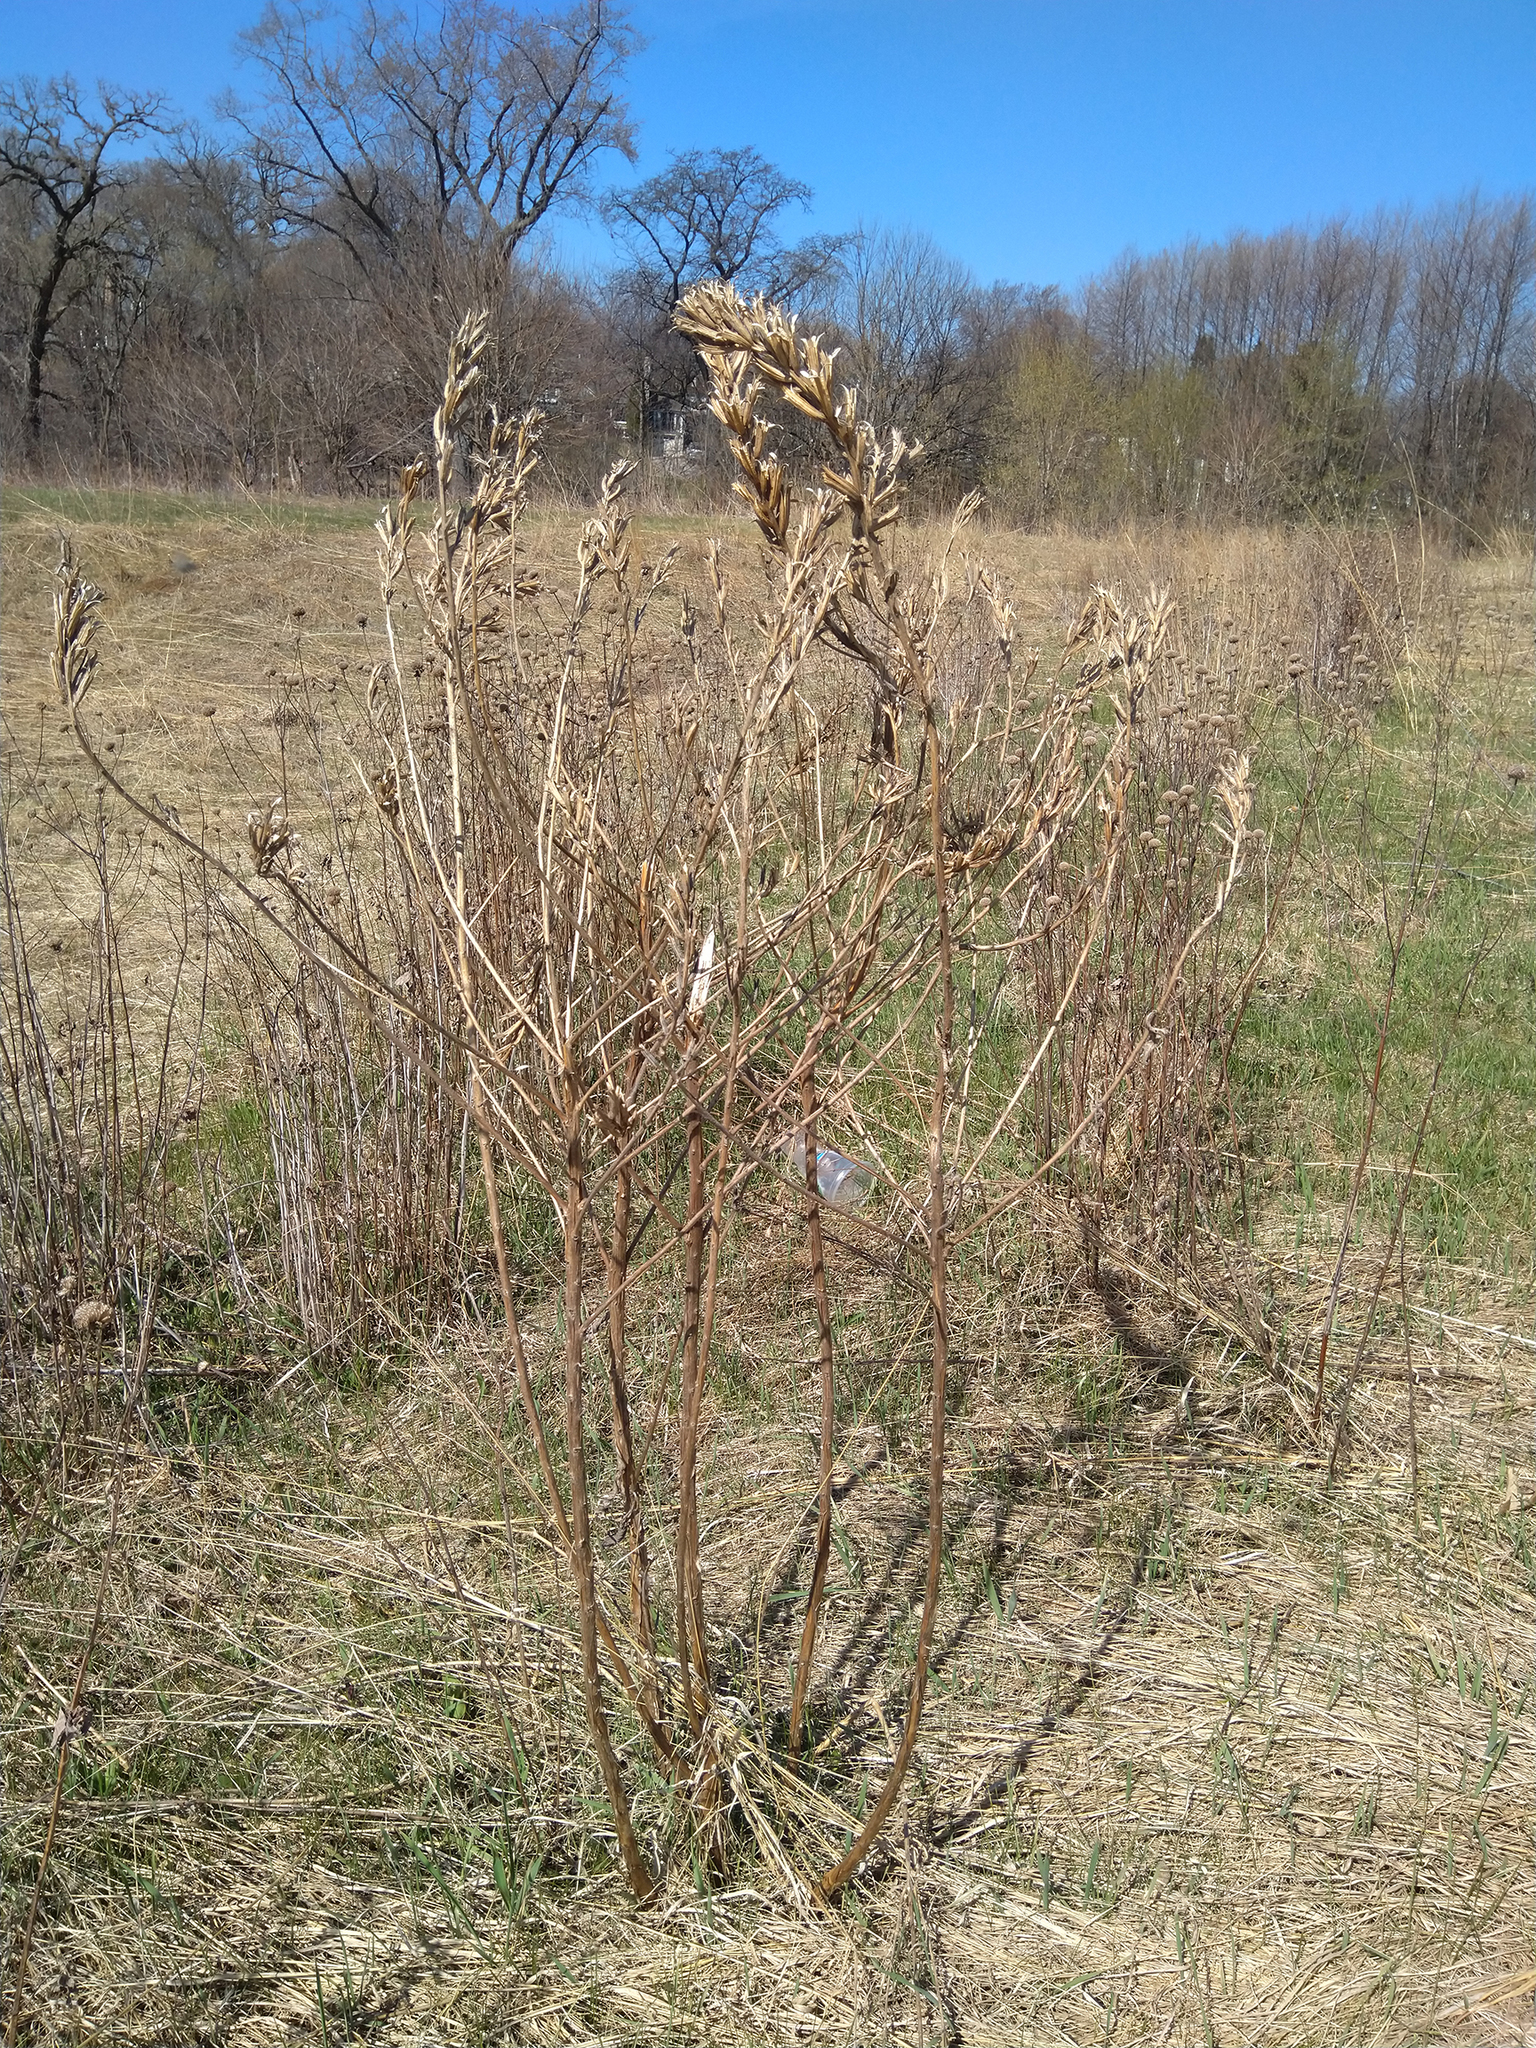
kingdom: Plantae
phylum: Tracheophyta
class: Magnoliopsida
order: Myrtales
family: Onagraceae
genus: Oenothera
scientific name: Oenothera biennis
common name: Common evening-primrose
